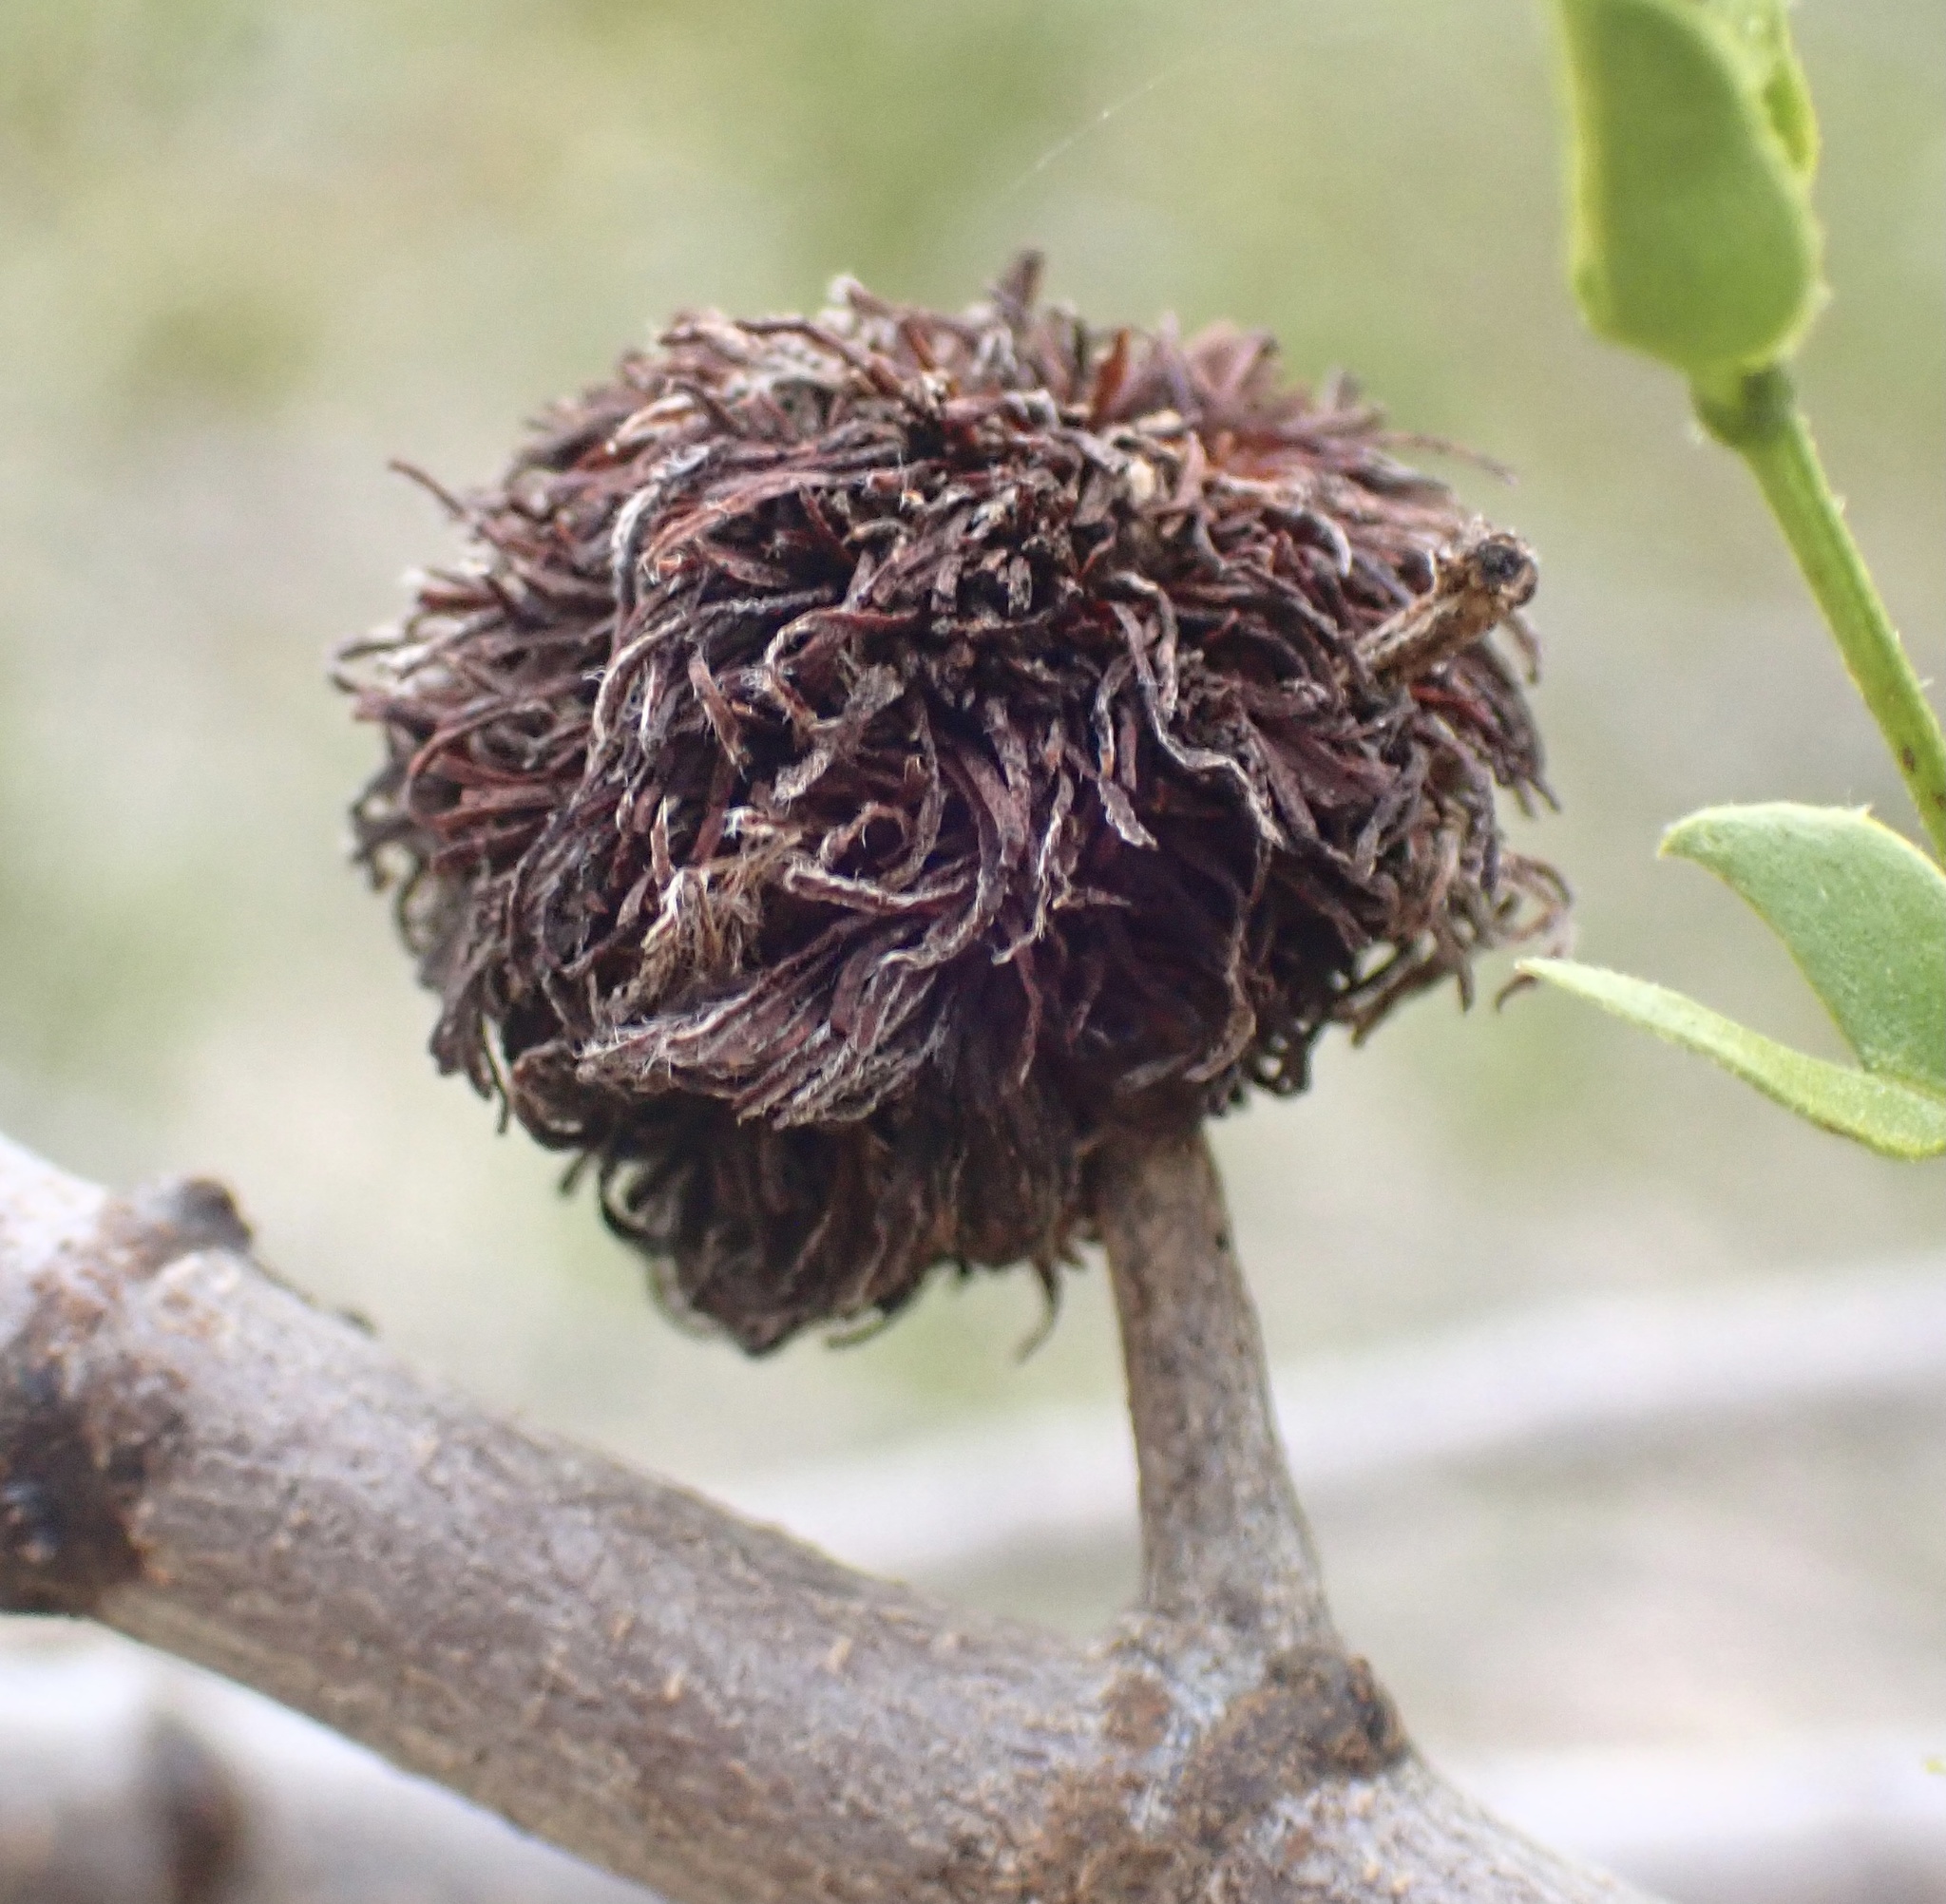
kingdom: Animalia
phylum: Arthropoda
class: Insecta
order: Diptera
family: Cecidomyiidae
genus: Asphondylia
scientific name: Asphondylia auripila
